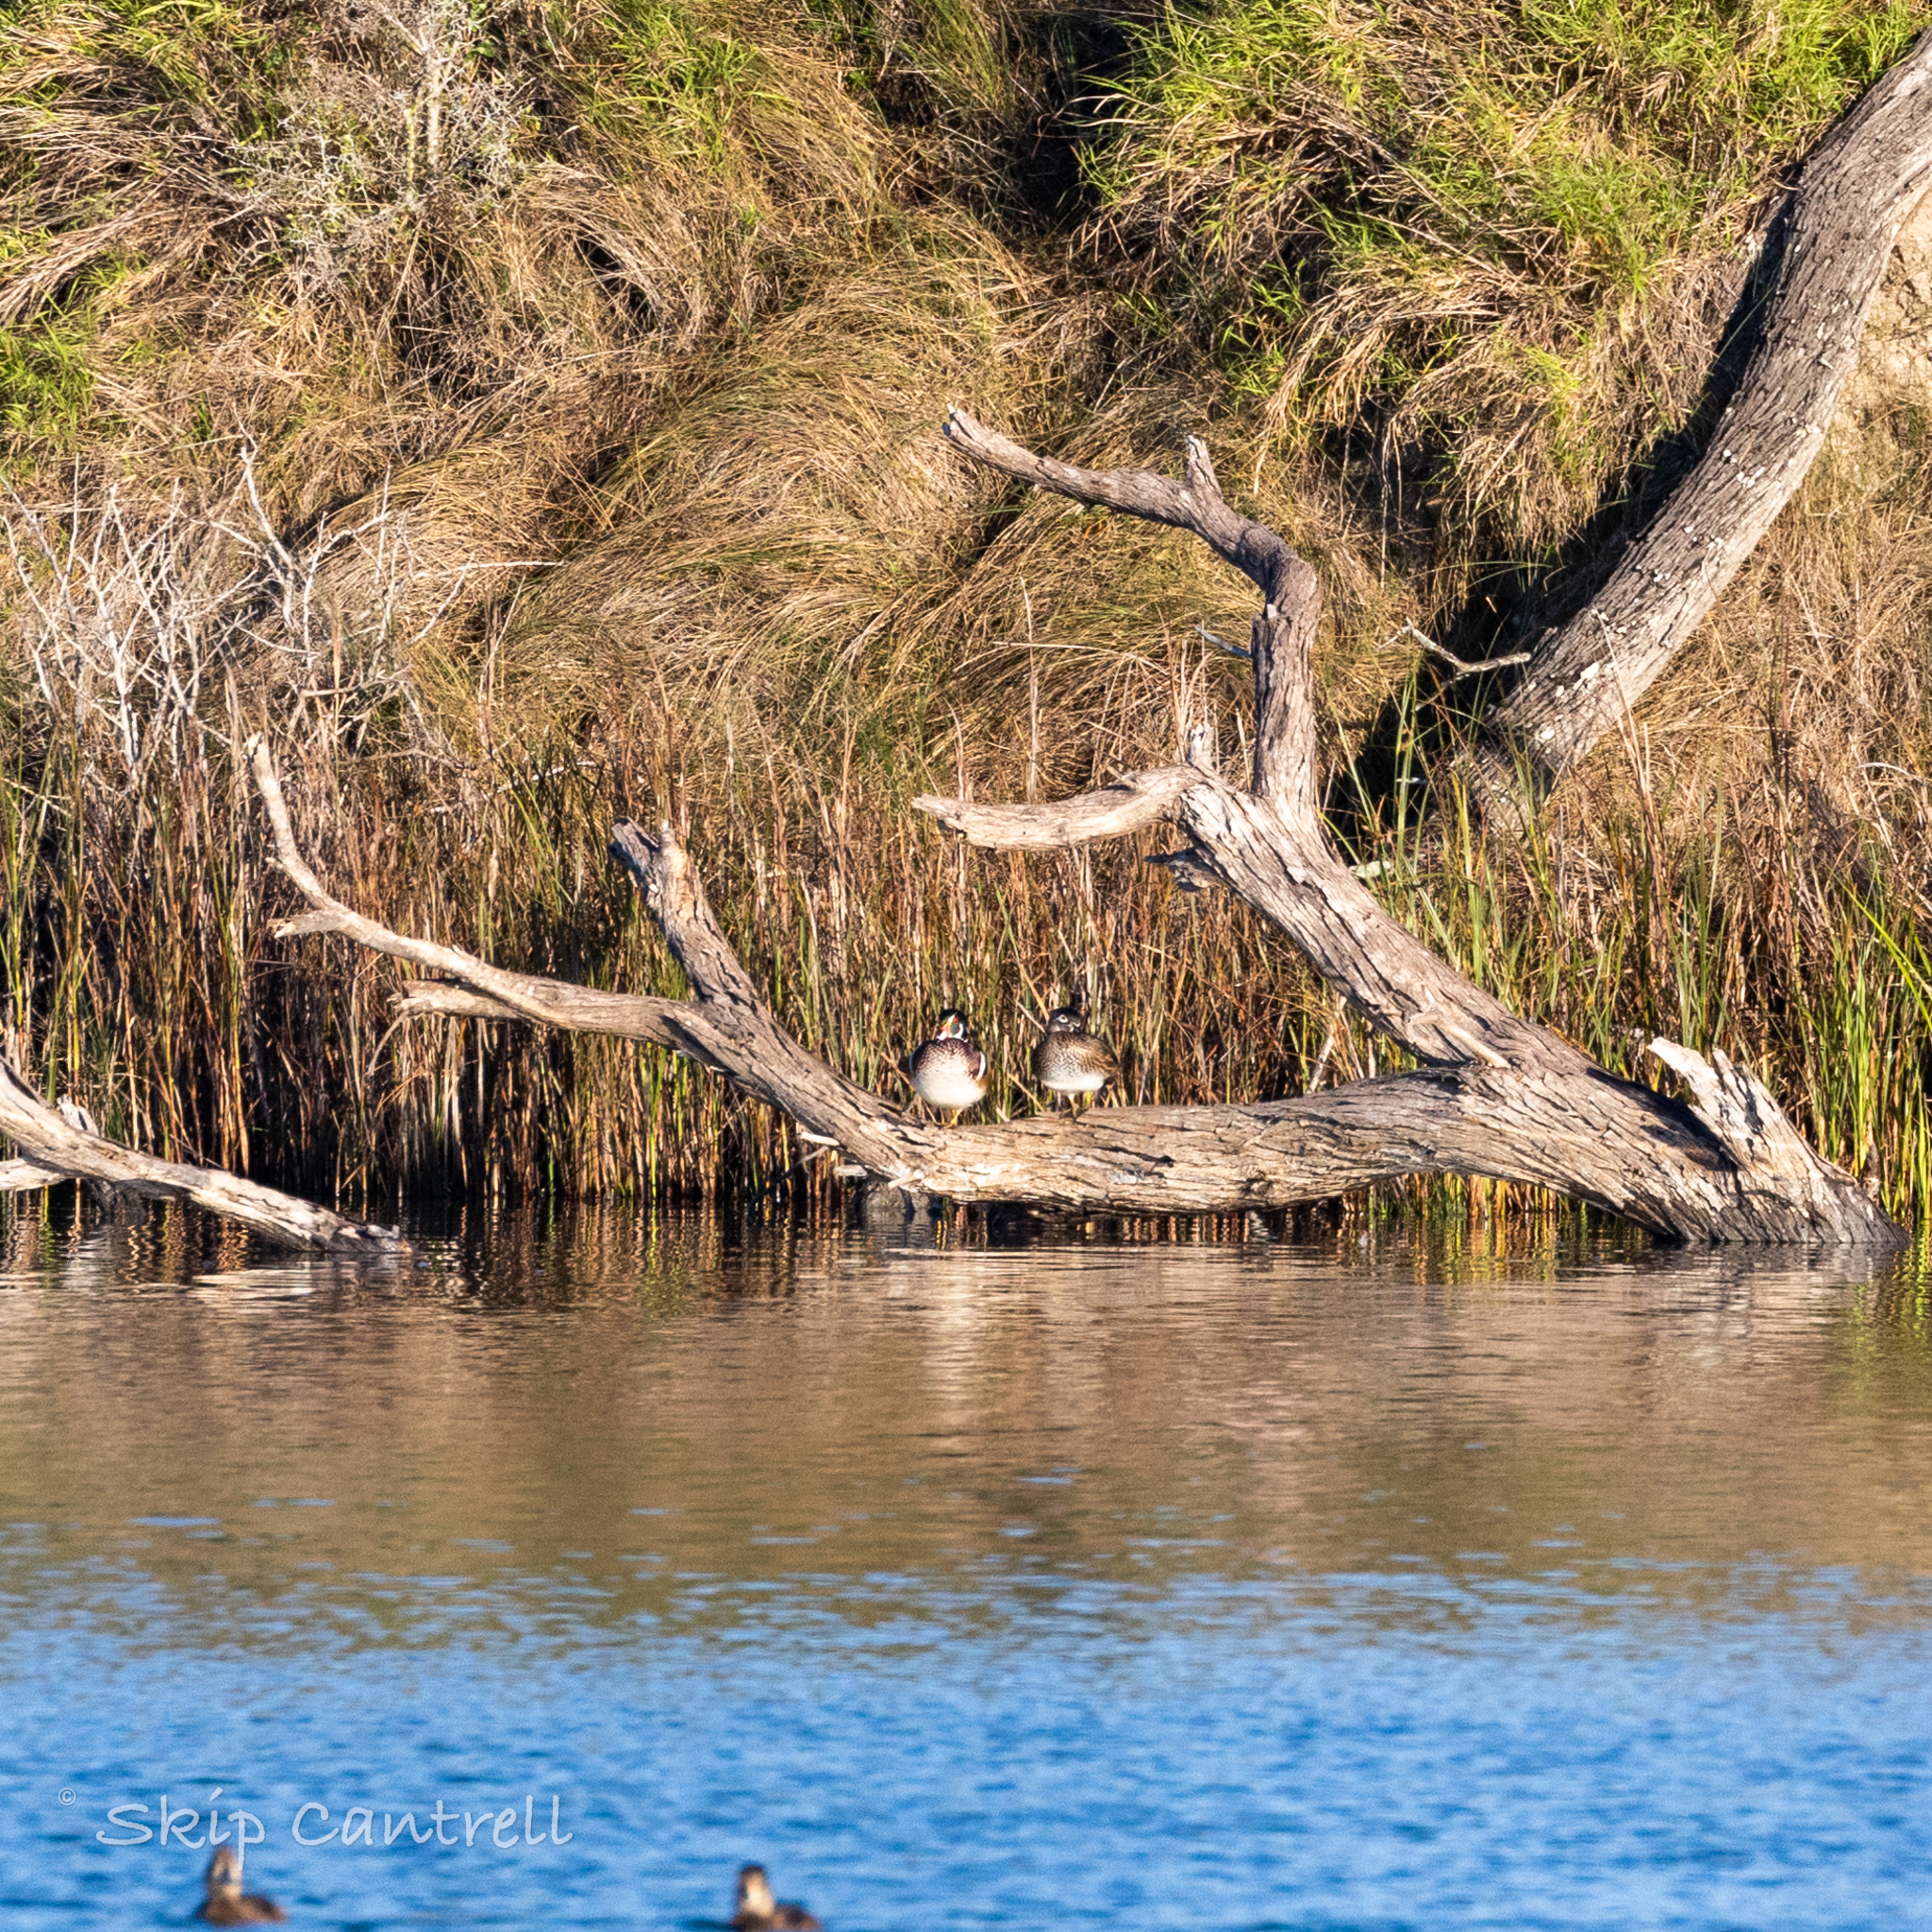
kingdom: Animalia
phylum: Chordata
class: Aves
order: Anseriformes
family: Anatidae
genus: Aix
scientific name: Aix sponsa
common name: Wood duck
